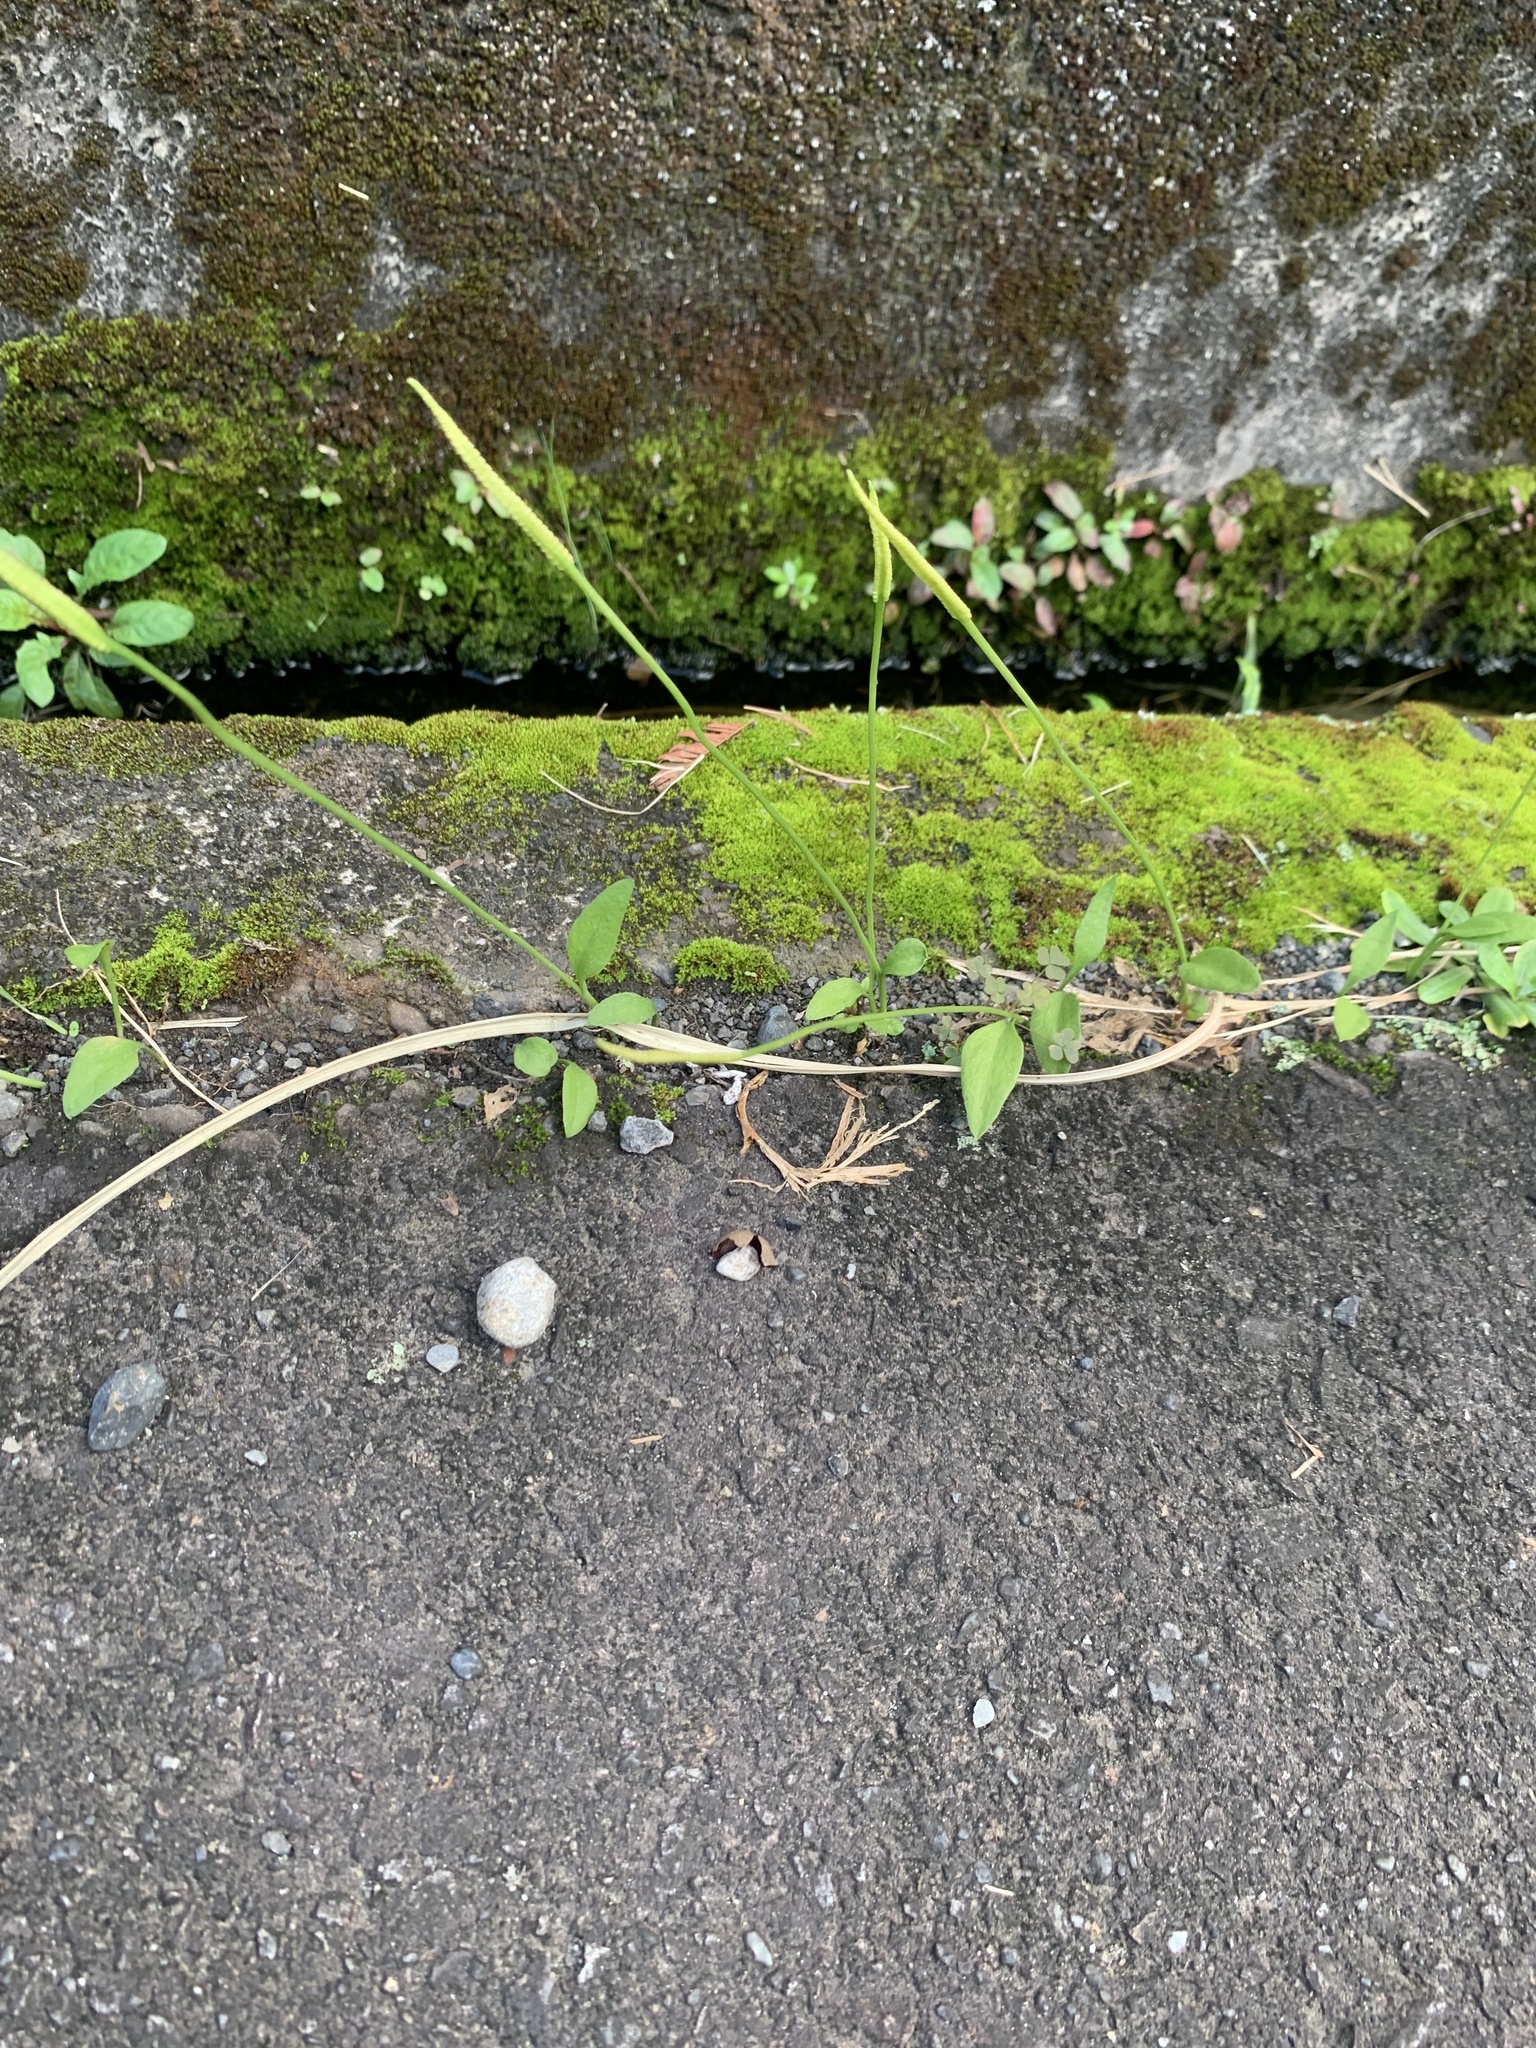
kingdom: Plantae
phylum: Tracheophyta
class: Polypodiopsida
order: Ophioglossales
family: Ophioglossaceae
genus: Ophioglossum
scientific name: Ophioglossum petiolatum
